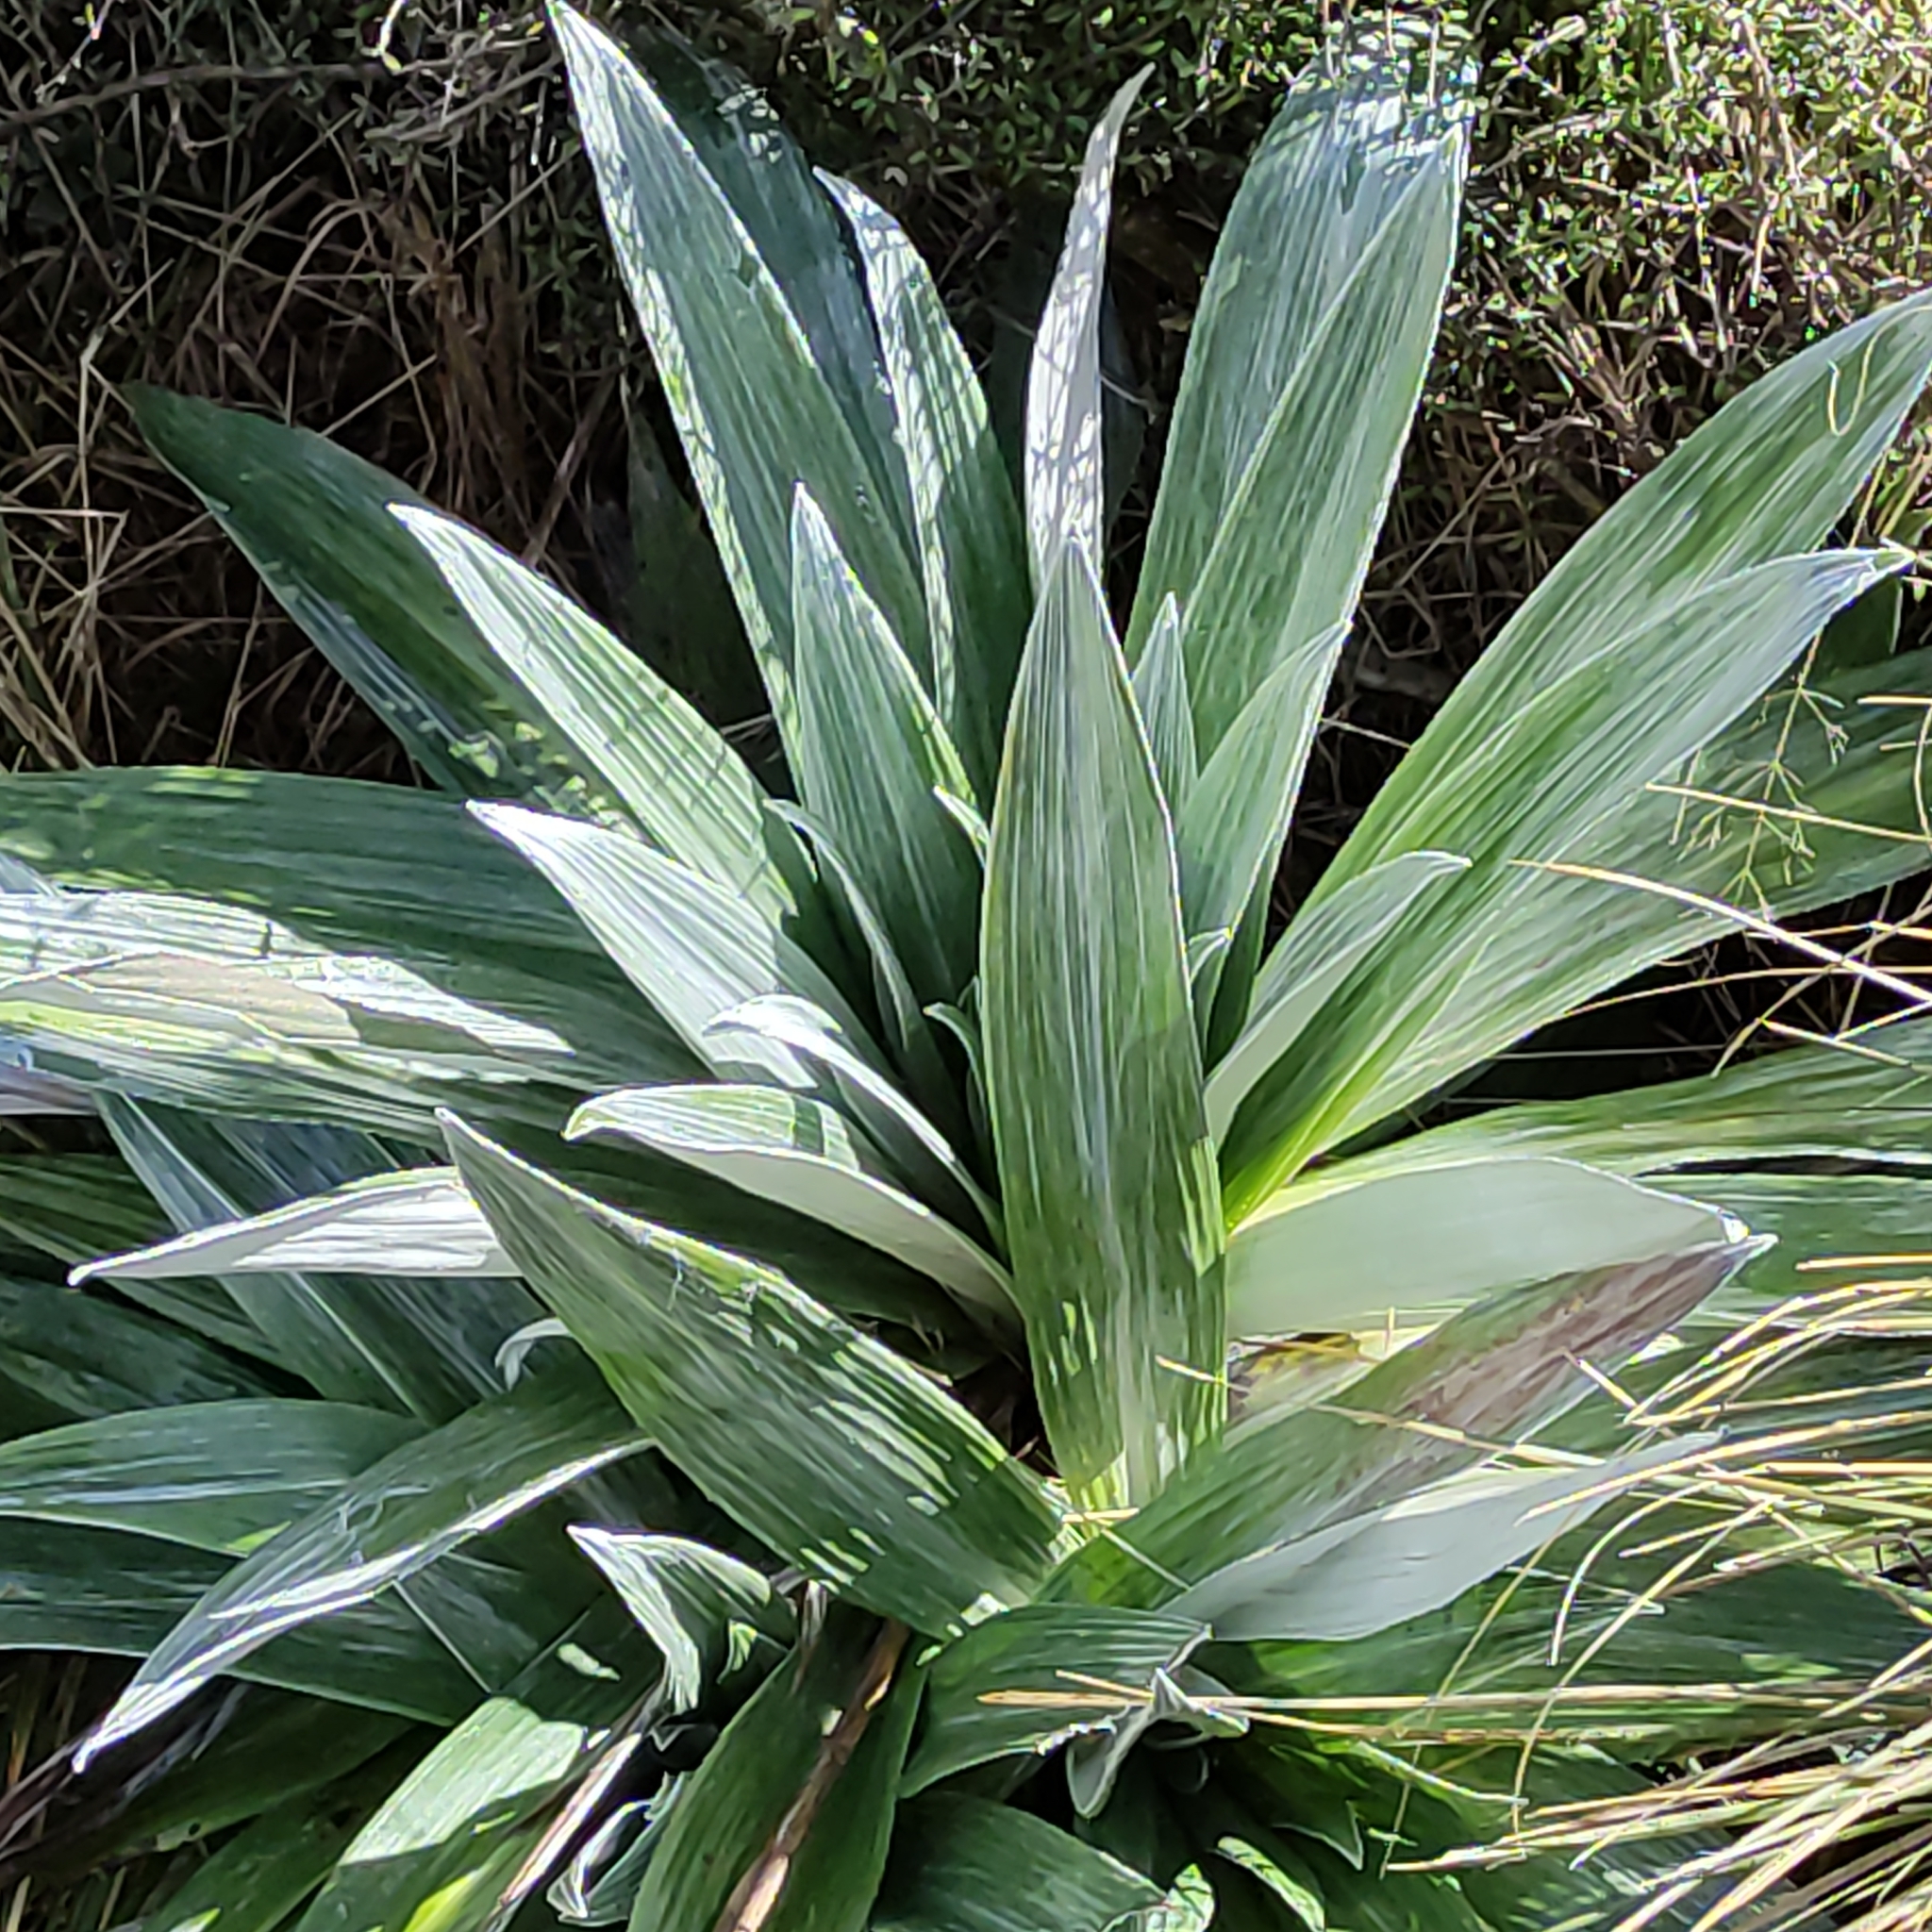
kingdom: Plantae
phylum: Tracheophyta
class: Magnoliopsida
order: Asterales
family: Asteraceae
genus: Celmisia
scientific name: Celmisia semicordata
